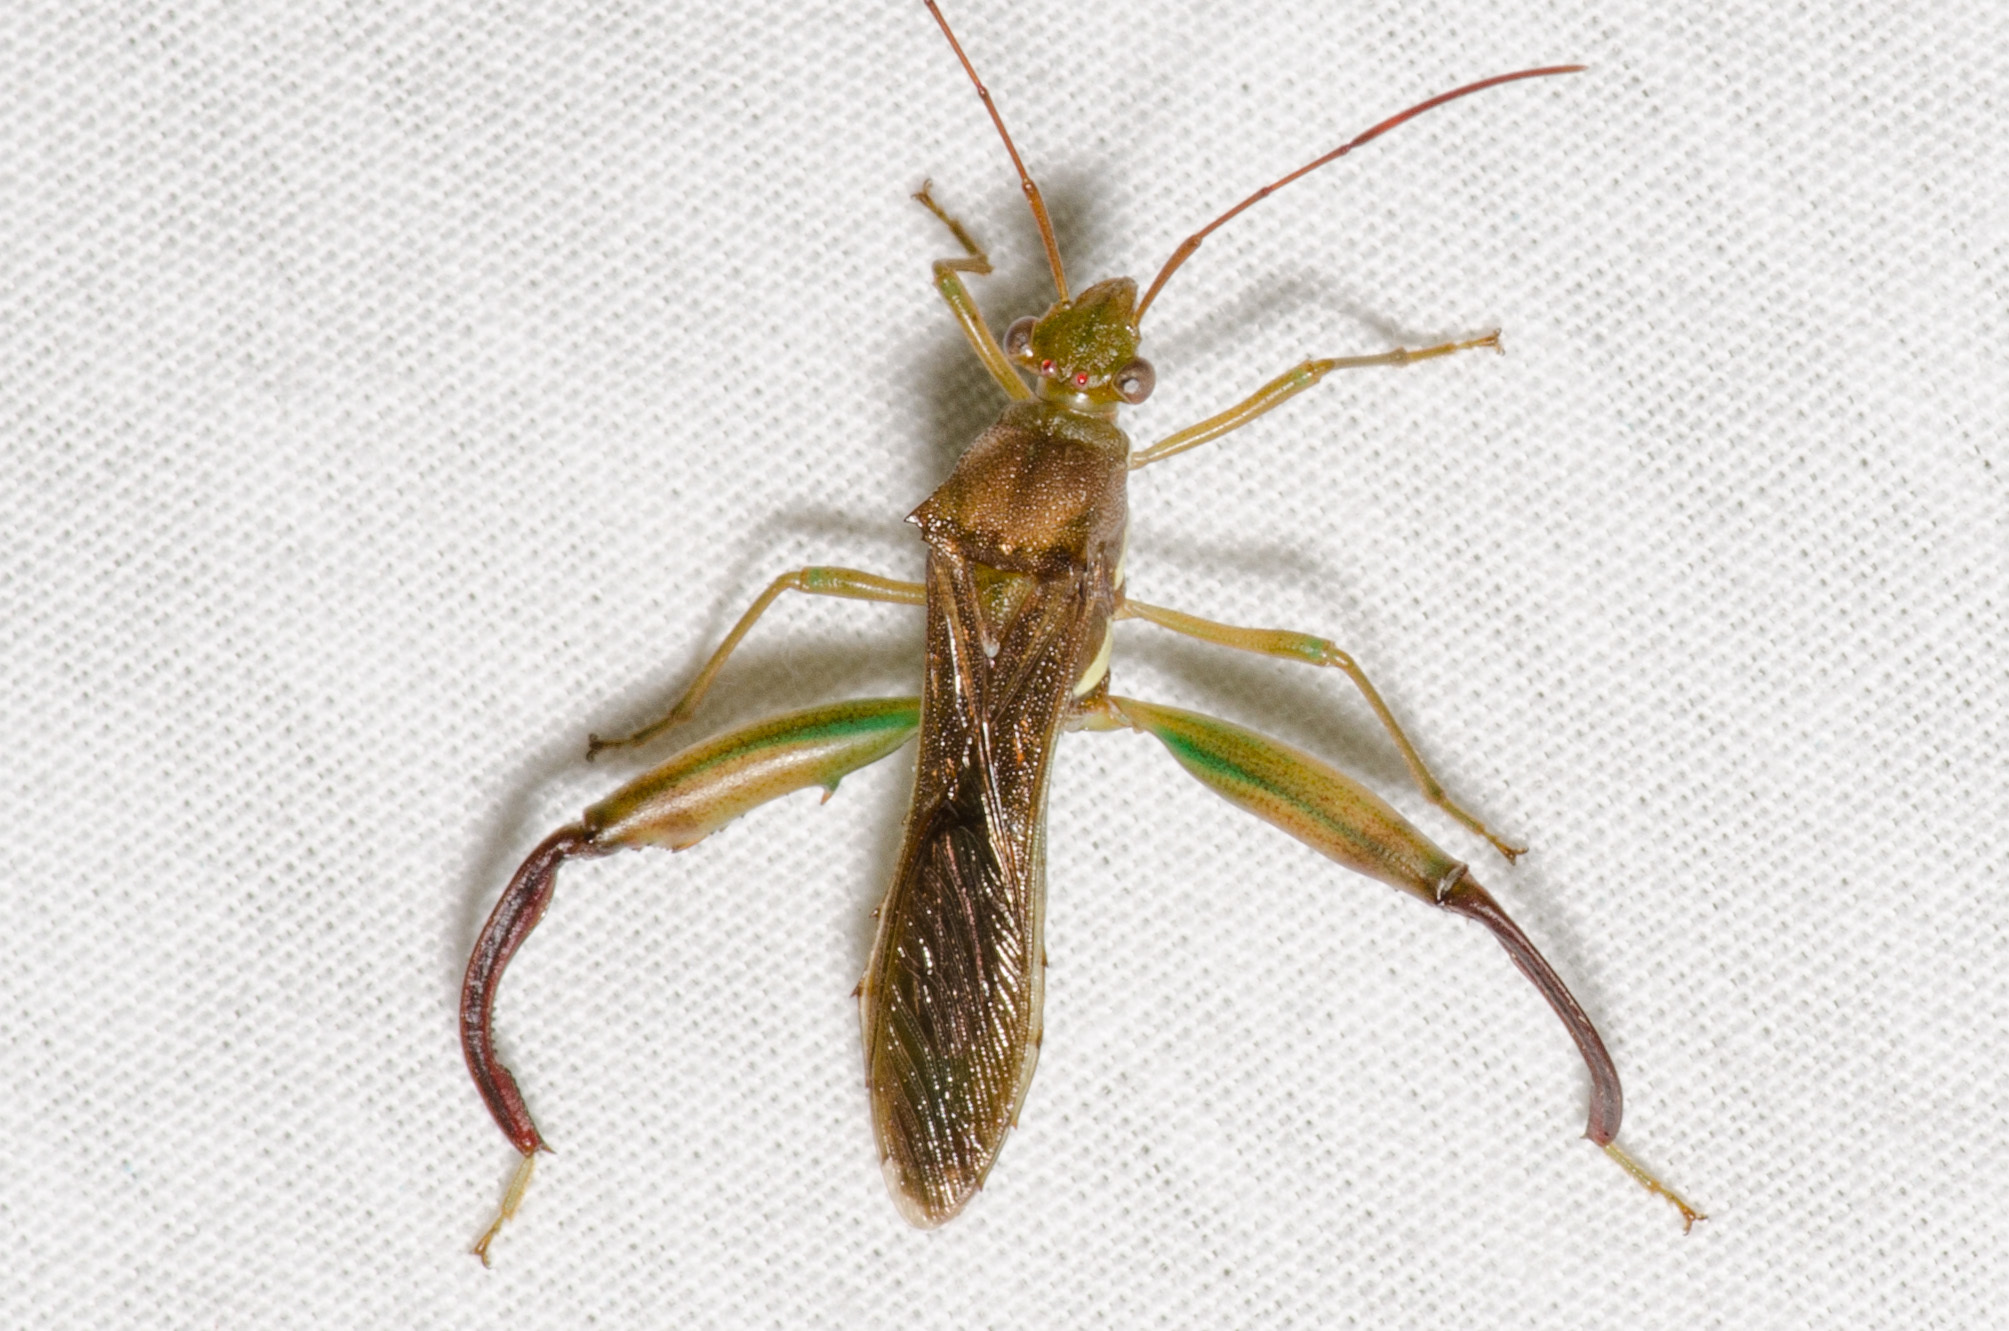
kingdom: Animalia
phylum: Arthropoda
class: Insecta
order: Hemiptera
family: Alydidae
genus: Hyalymenus
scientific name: Hyalymenus tarsatus
